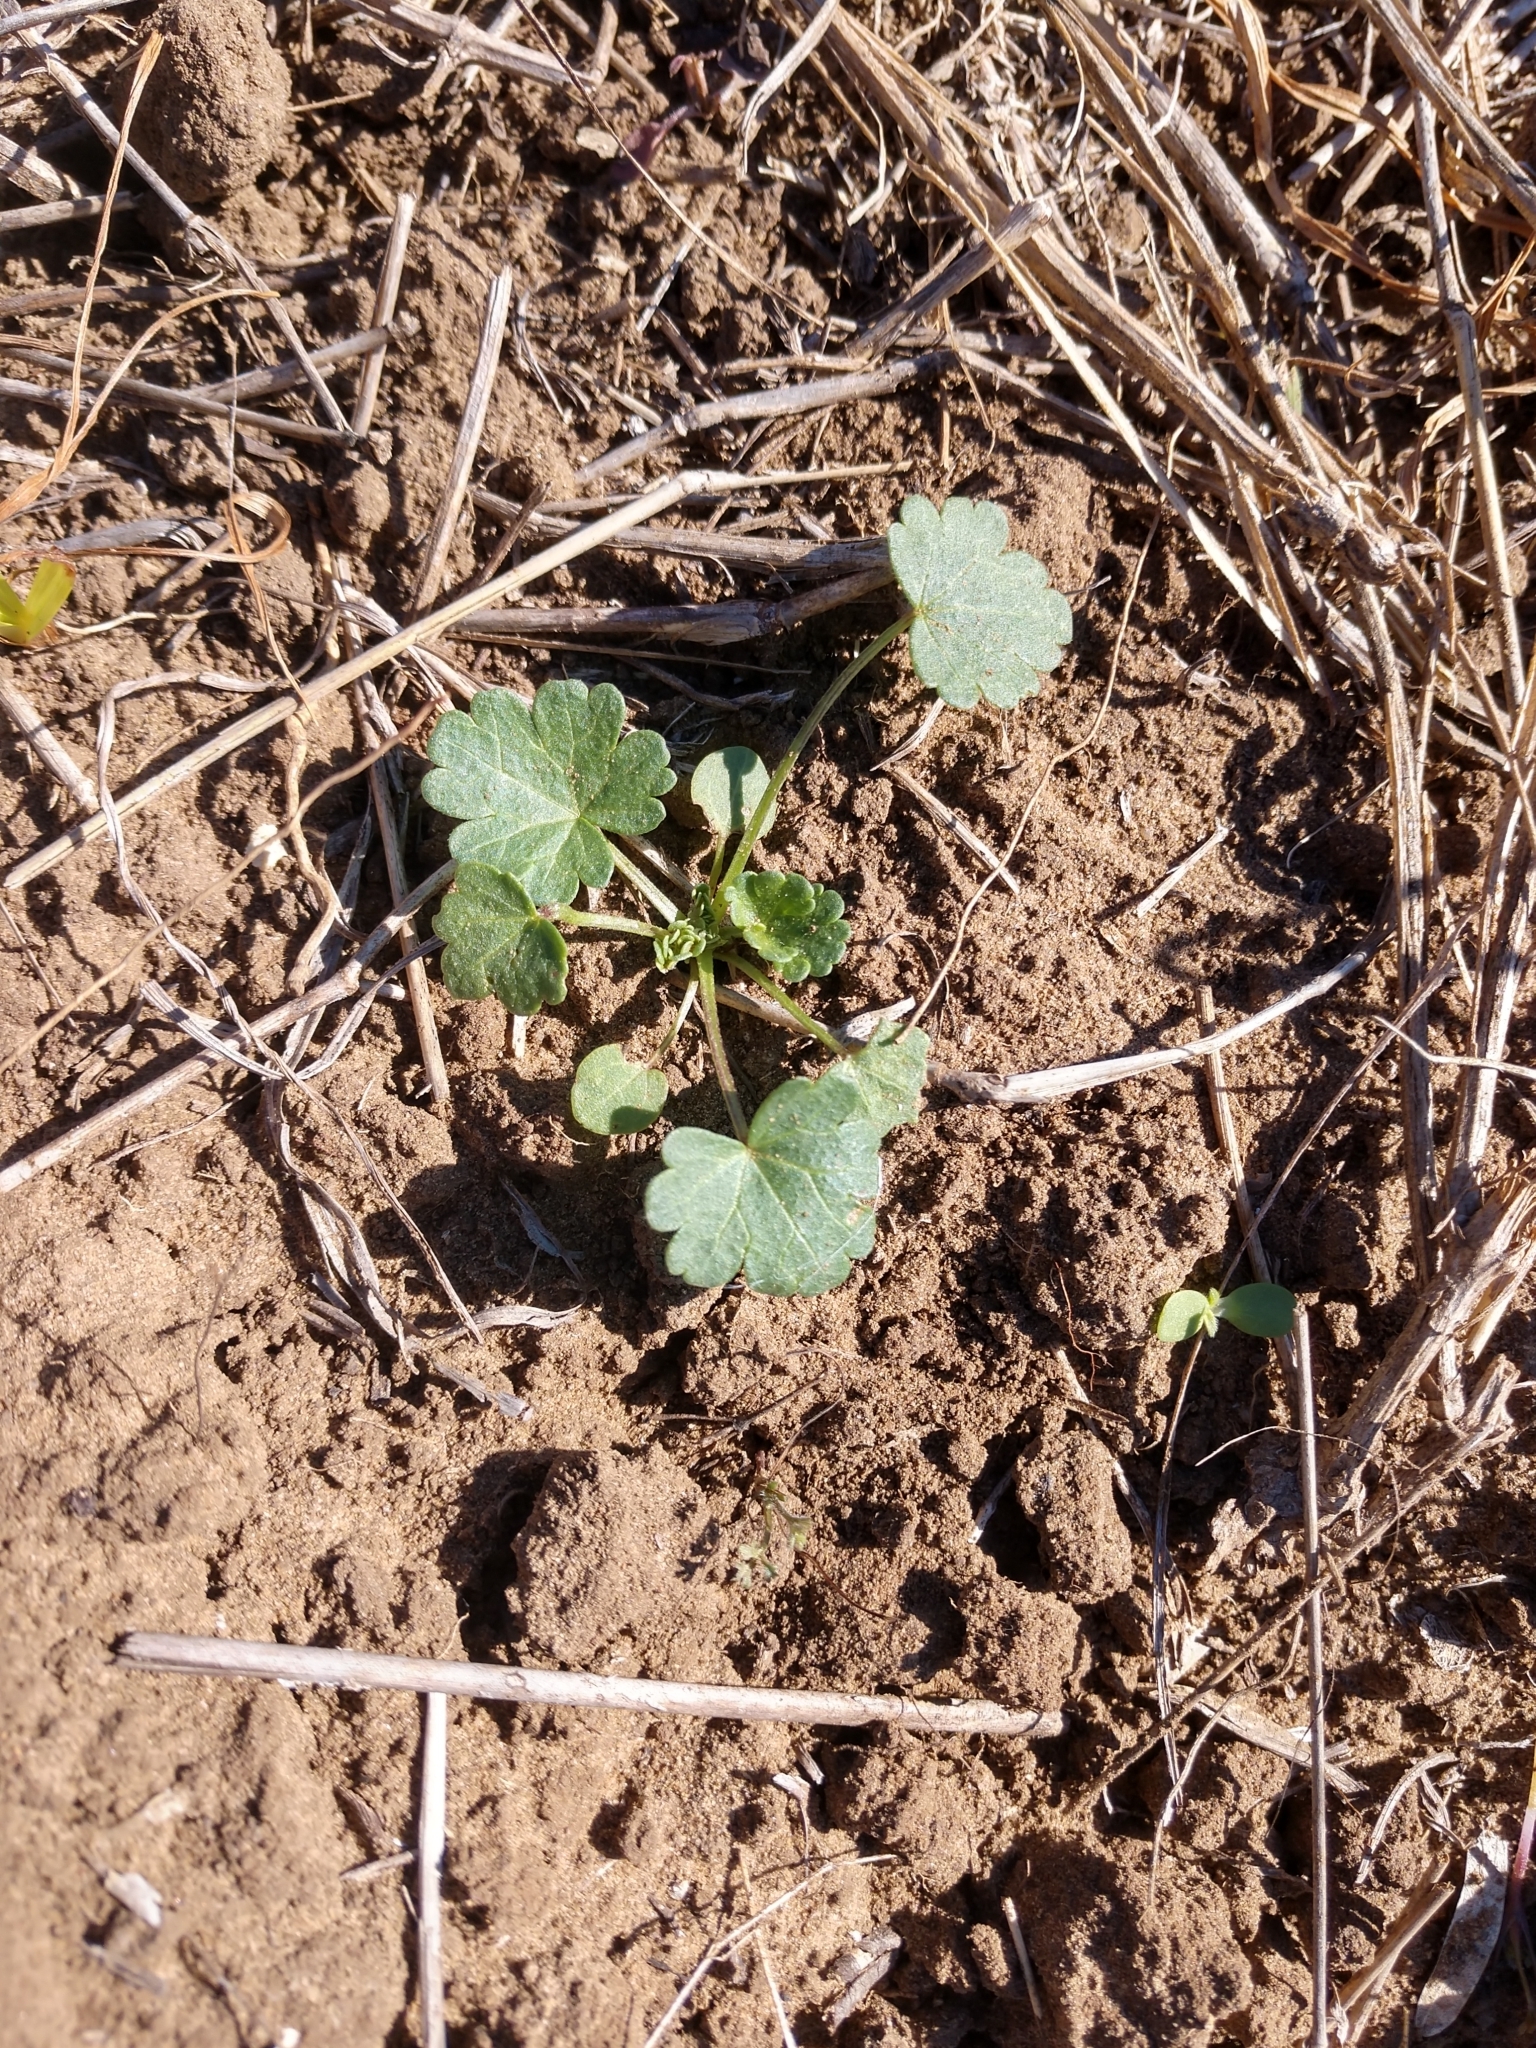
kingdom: Plantae
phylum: Tracheophyta
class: Magnoliopsida
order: Malvales
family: Malvaceae
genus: Callirhoe
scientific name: Callirhoe leiocarpa
